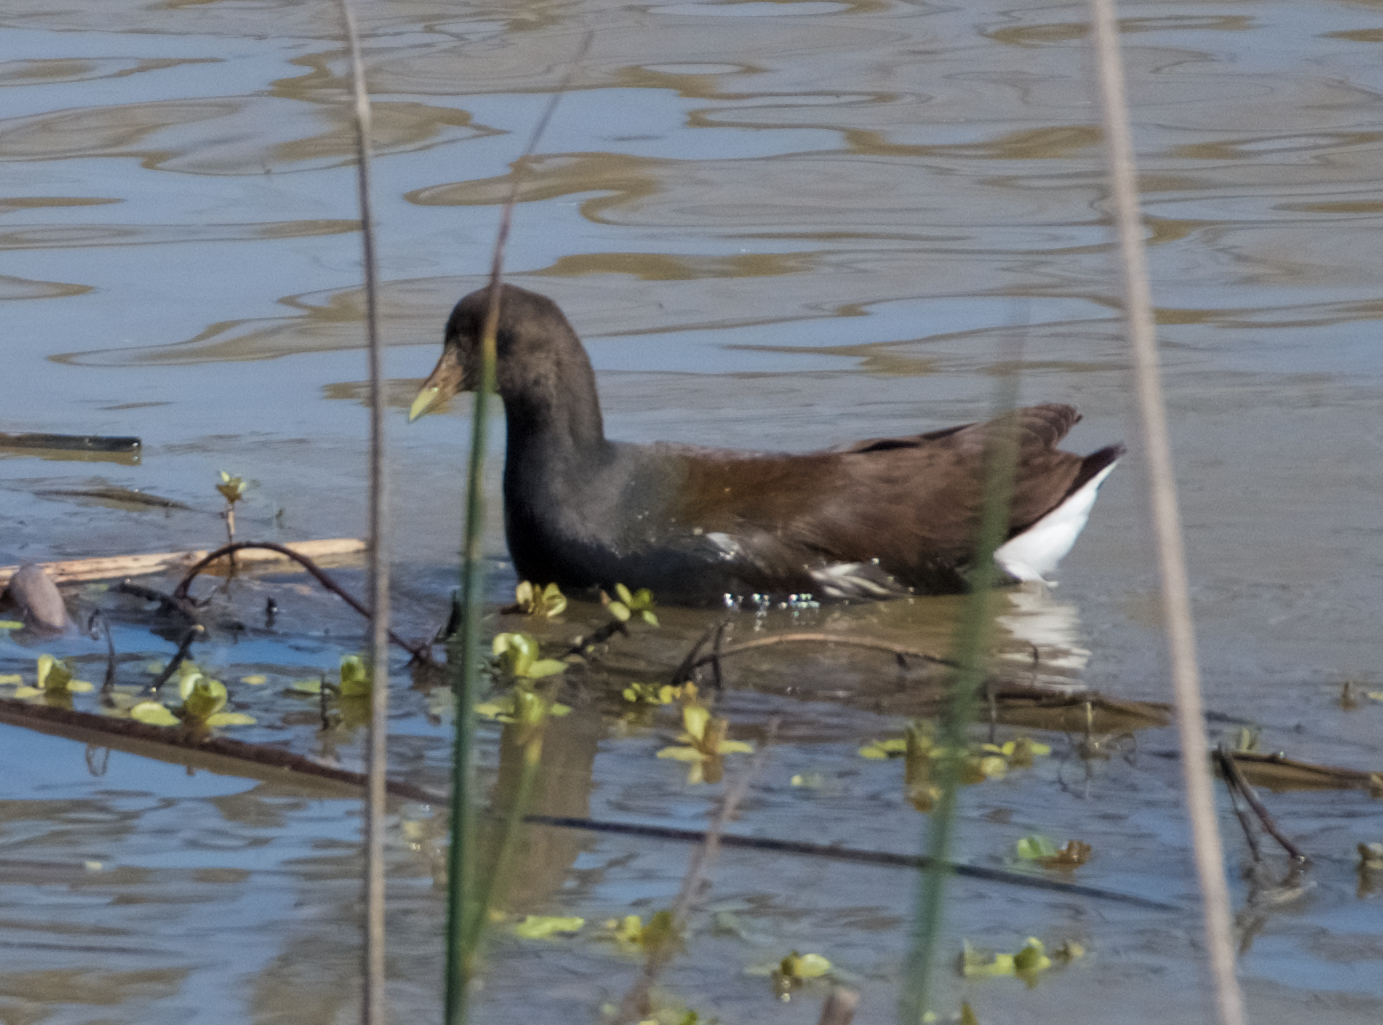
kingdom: Animalia
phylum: Chordata
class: Aves
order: Gruiformes
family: Rallidae
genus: Gallinula
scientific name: Gallinula chloropus
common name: Common moorhen
